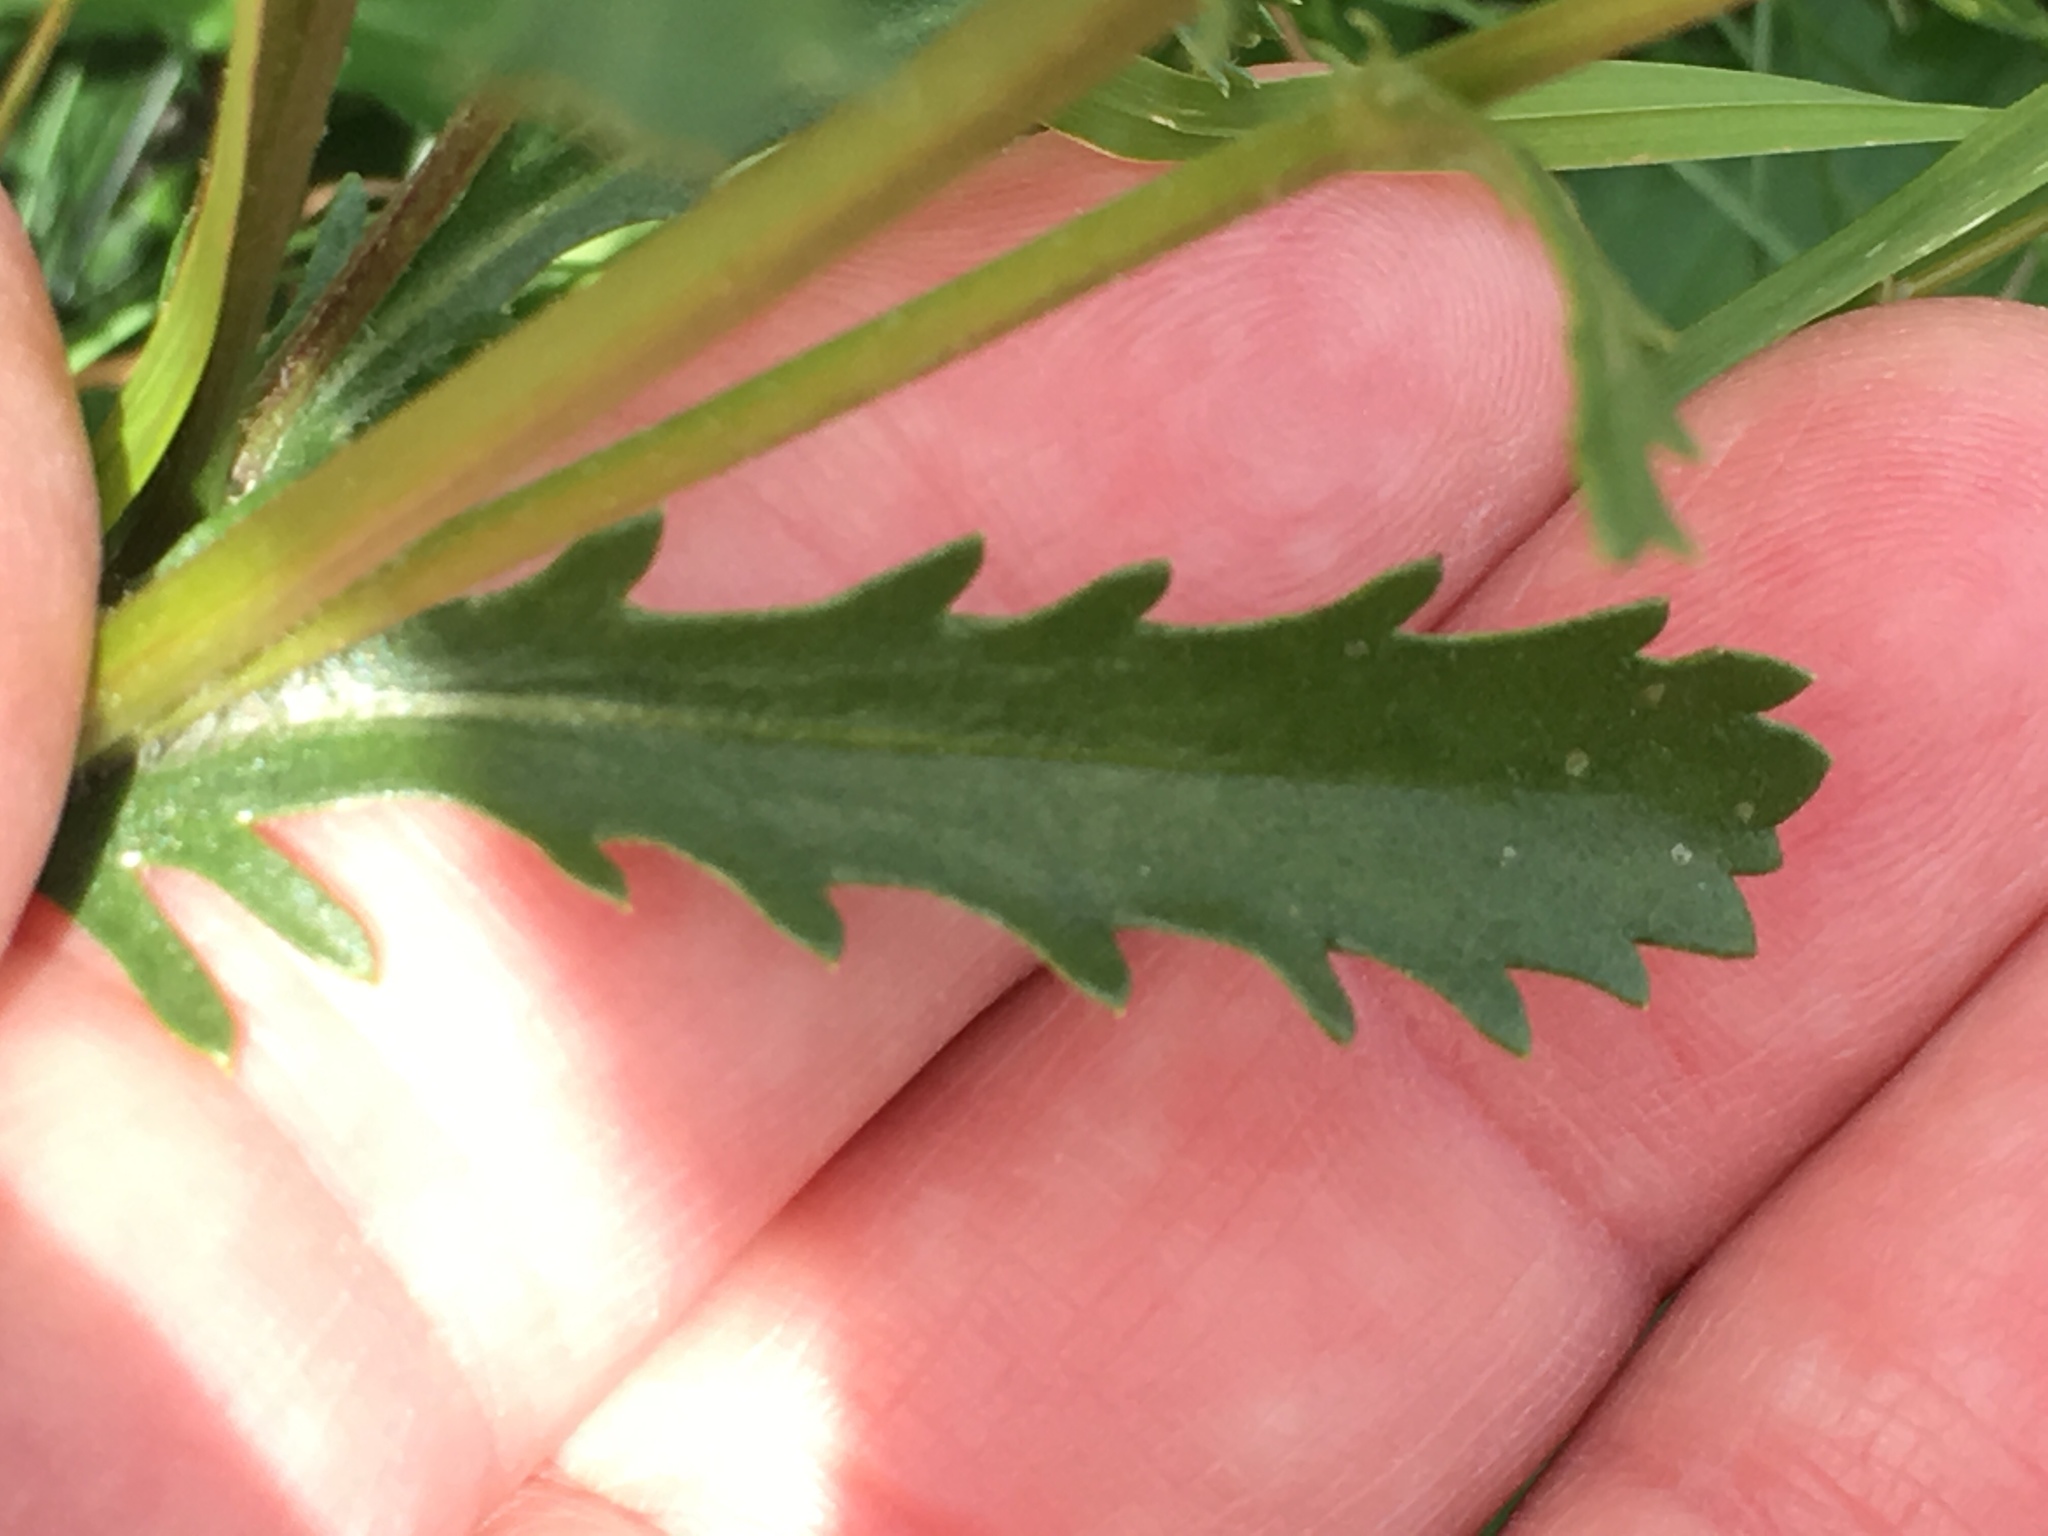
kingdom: Plantae
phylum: Tracheophyta
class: Magnoliopsida
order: Asterales
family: Asteraceae
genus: Leucanthemum
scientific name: Leucanthemum vulgare
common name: Oxeye daisy
